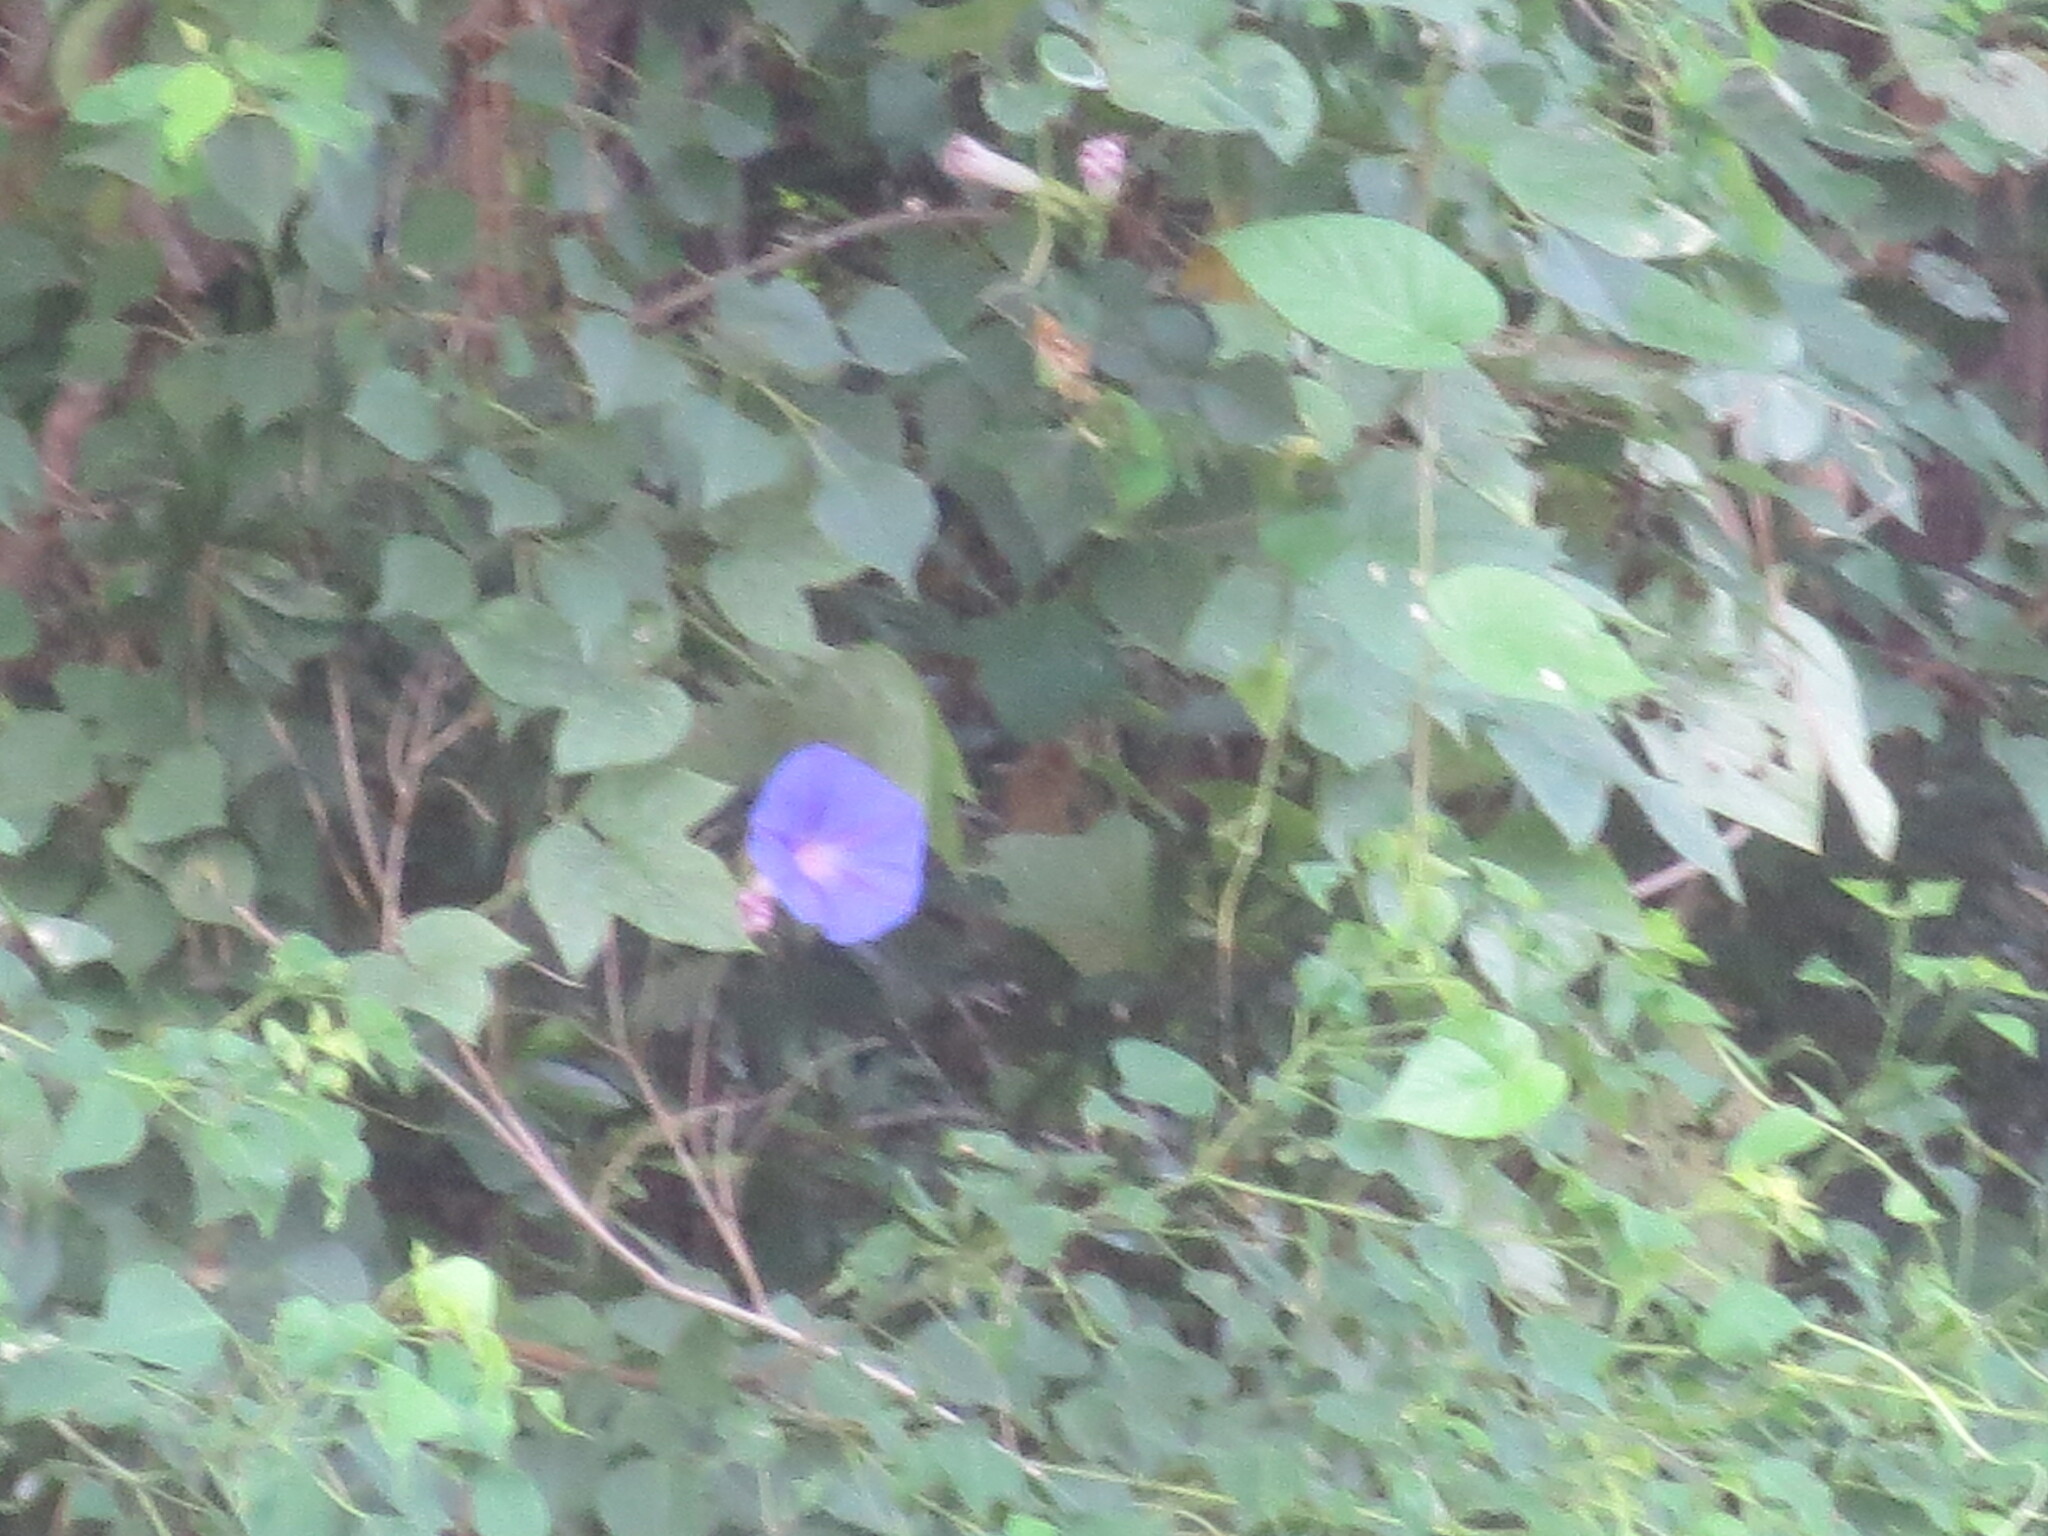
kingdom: Plantae
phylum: Tracheophyta
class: Magnoliopsida
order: Solanales
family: Convolvulaceae
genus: Ipomoea
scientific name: Ipomoea indica
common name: Blue dawnflower
